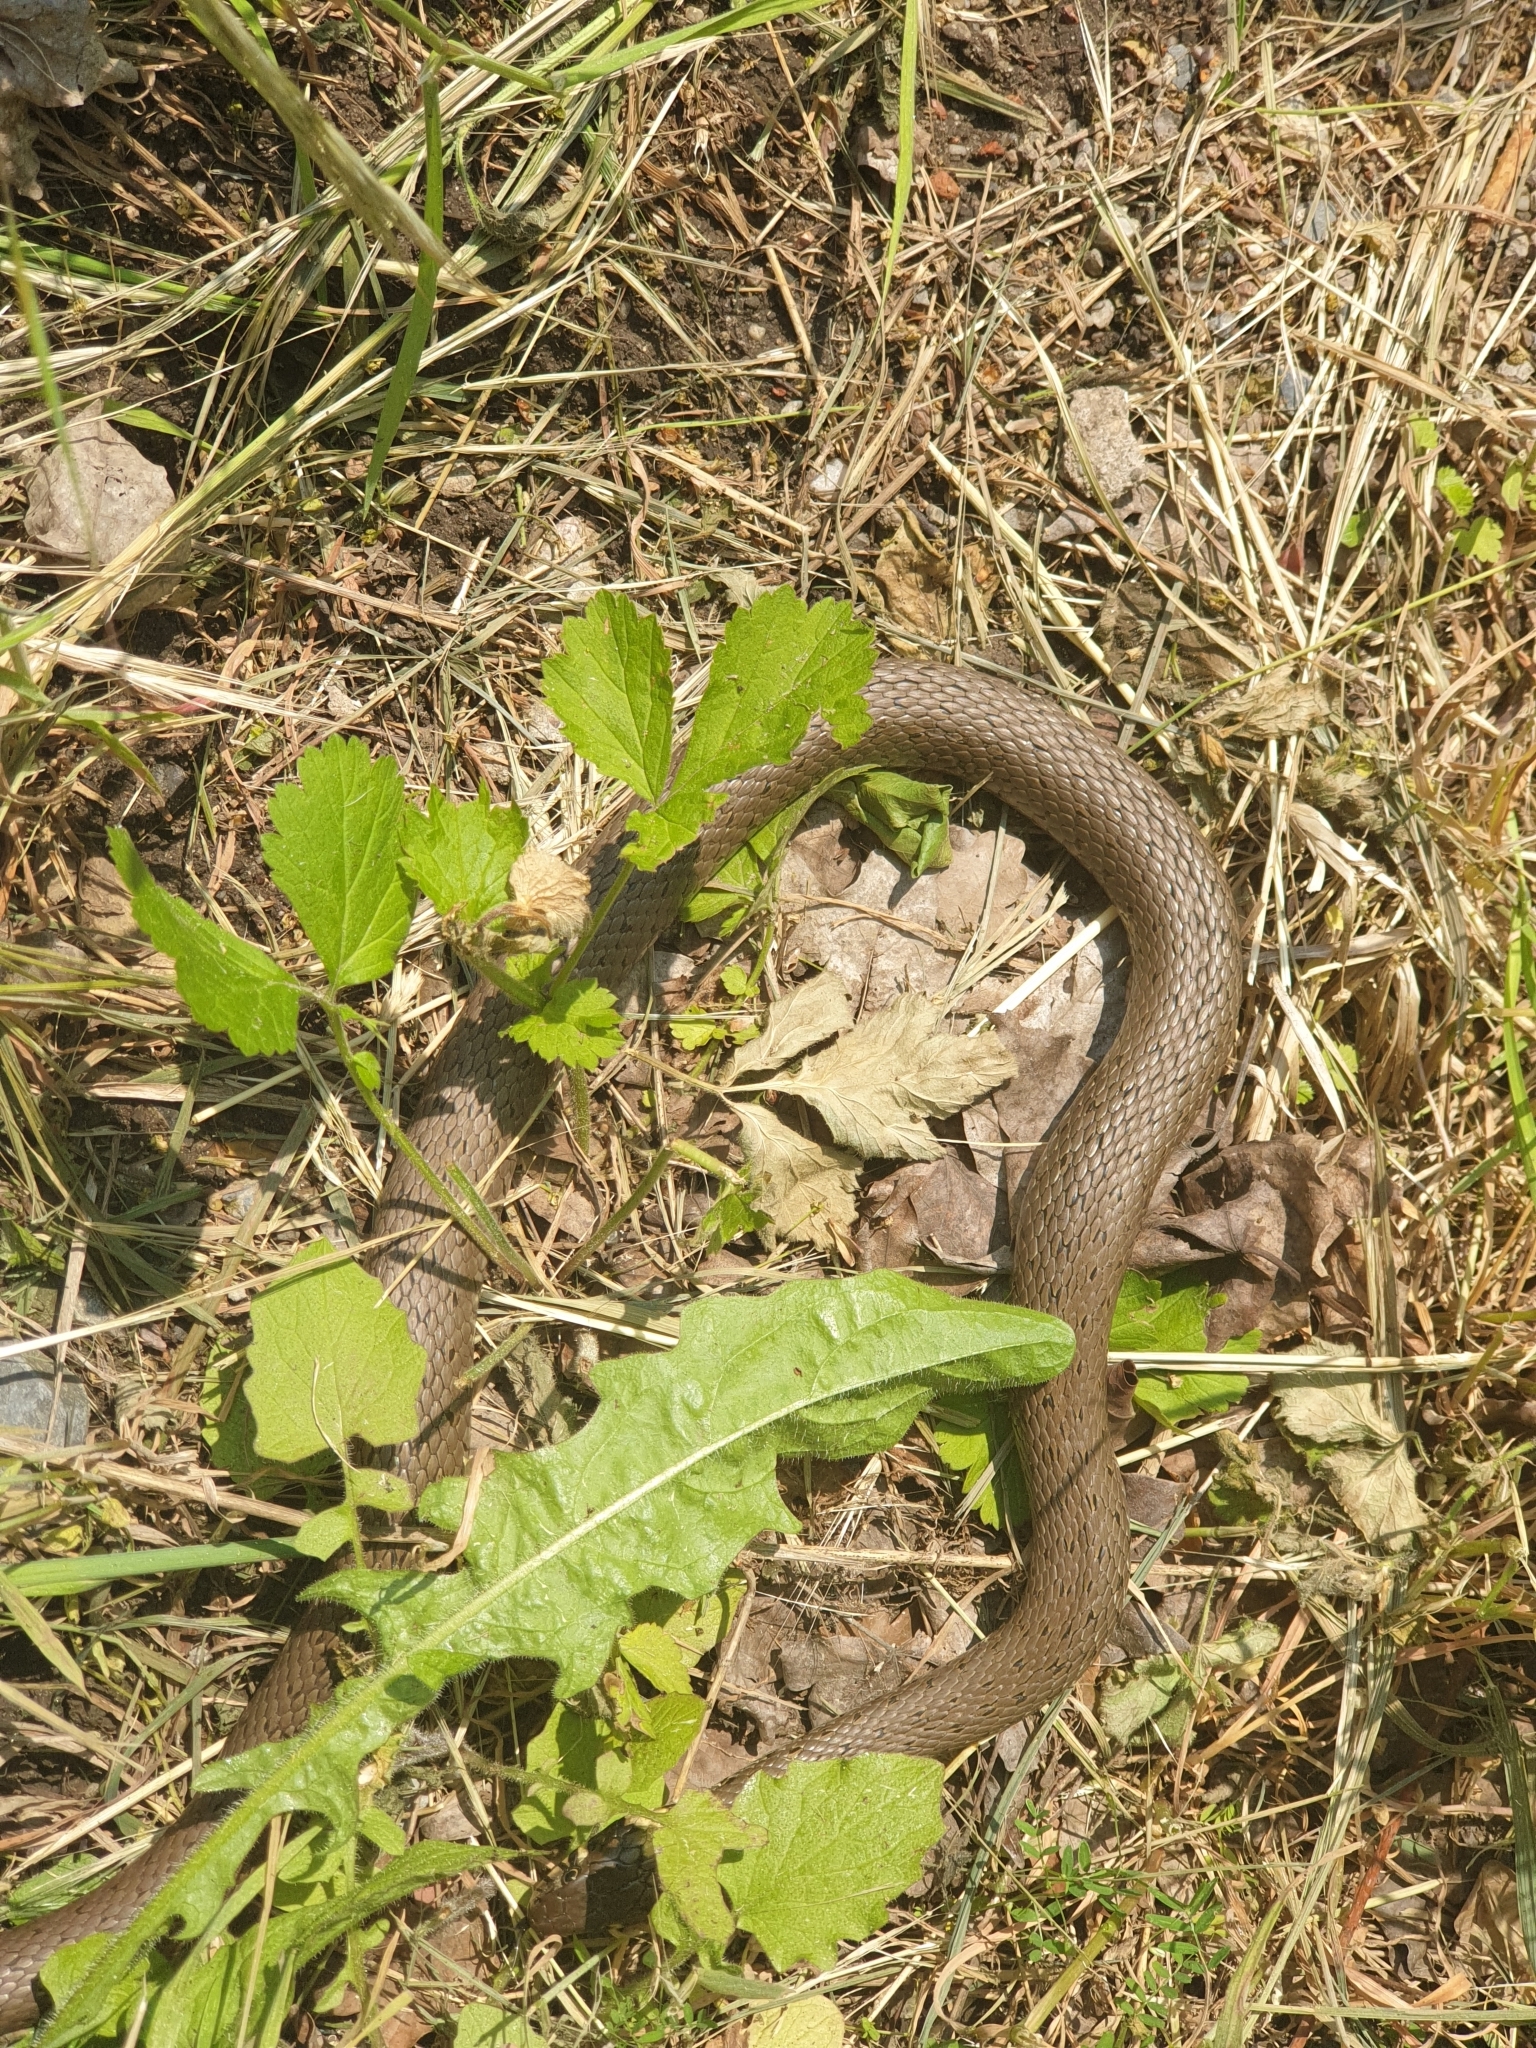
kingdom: Animalia
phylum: Chordata
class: Squamata
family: Colubridae
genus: Natrix
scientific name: Natrix natrix
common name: Grass snake
